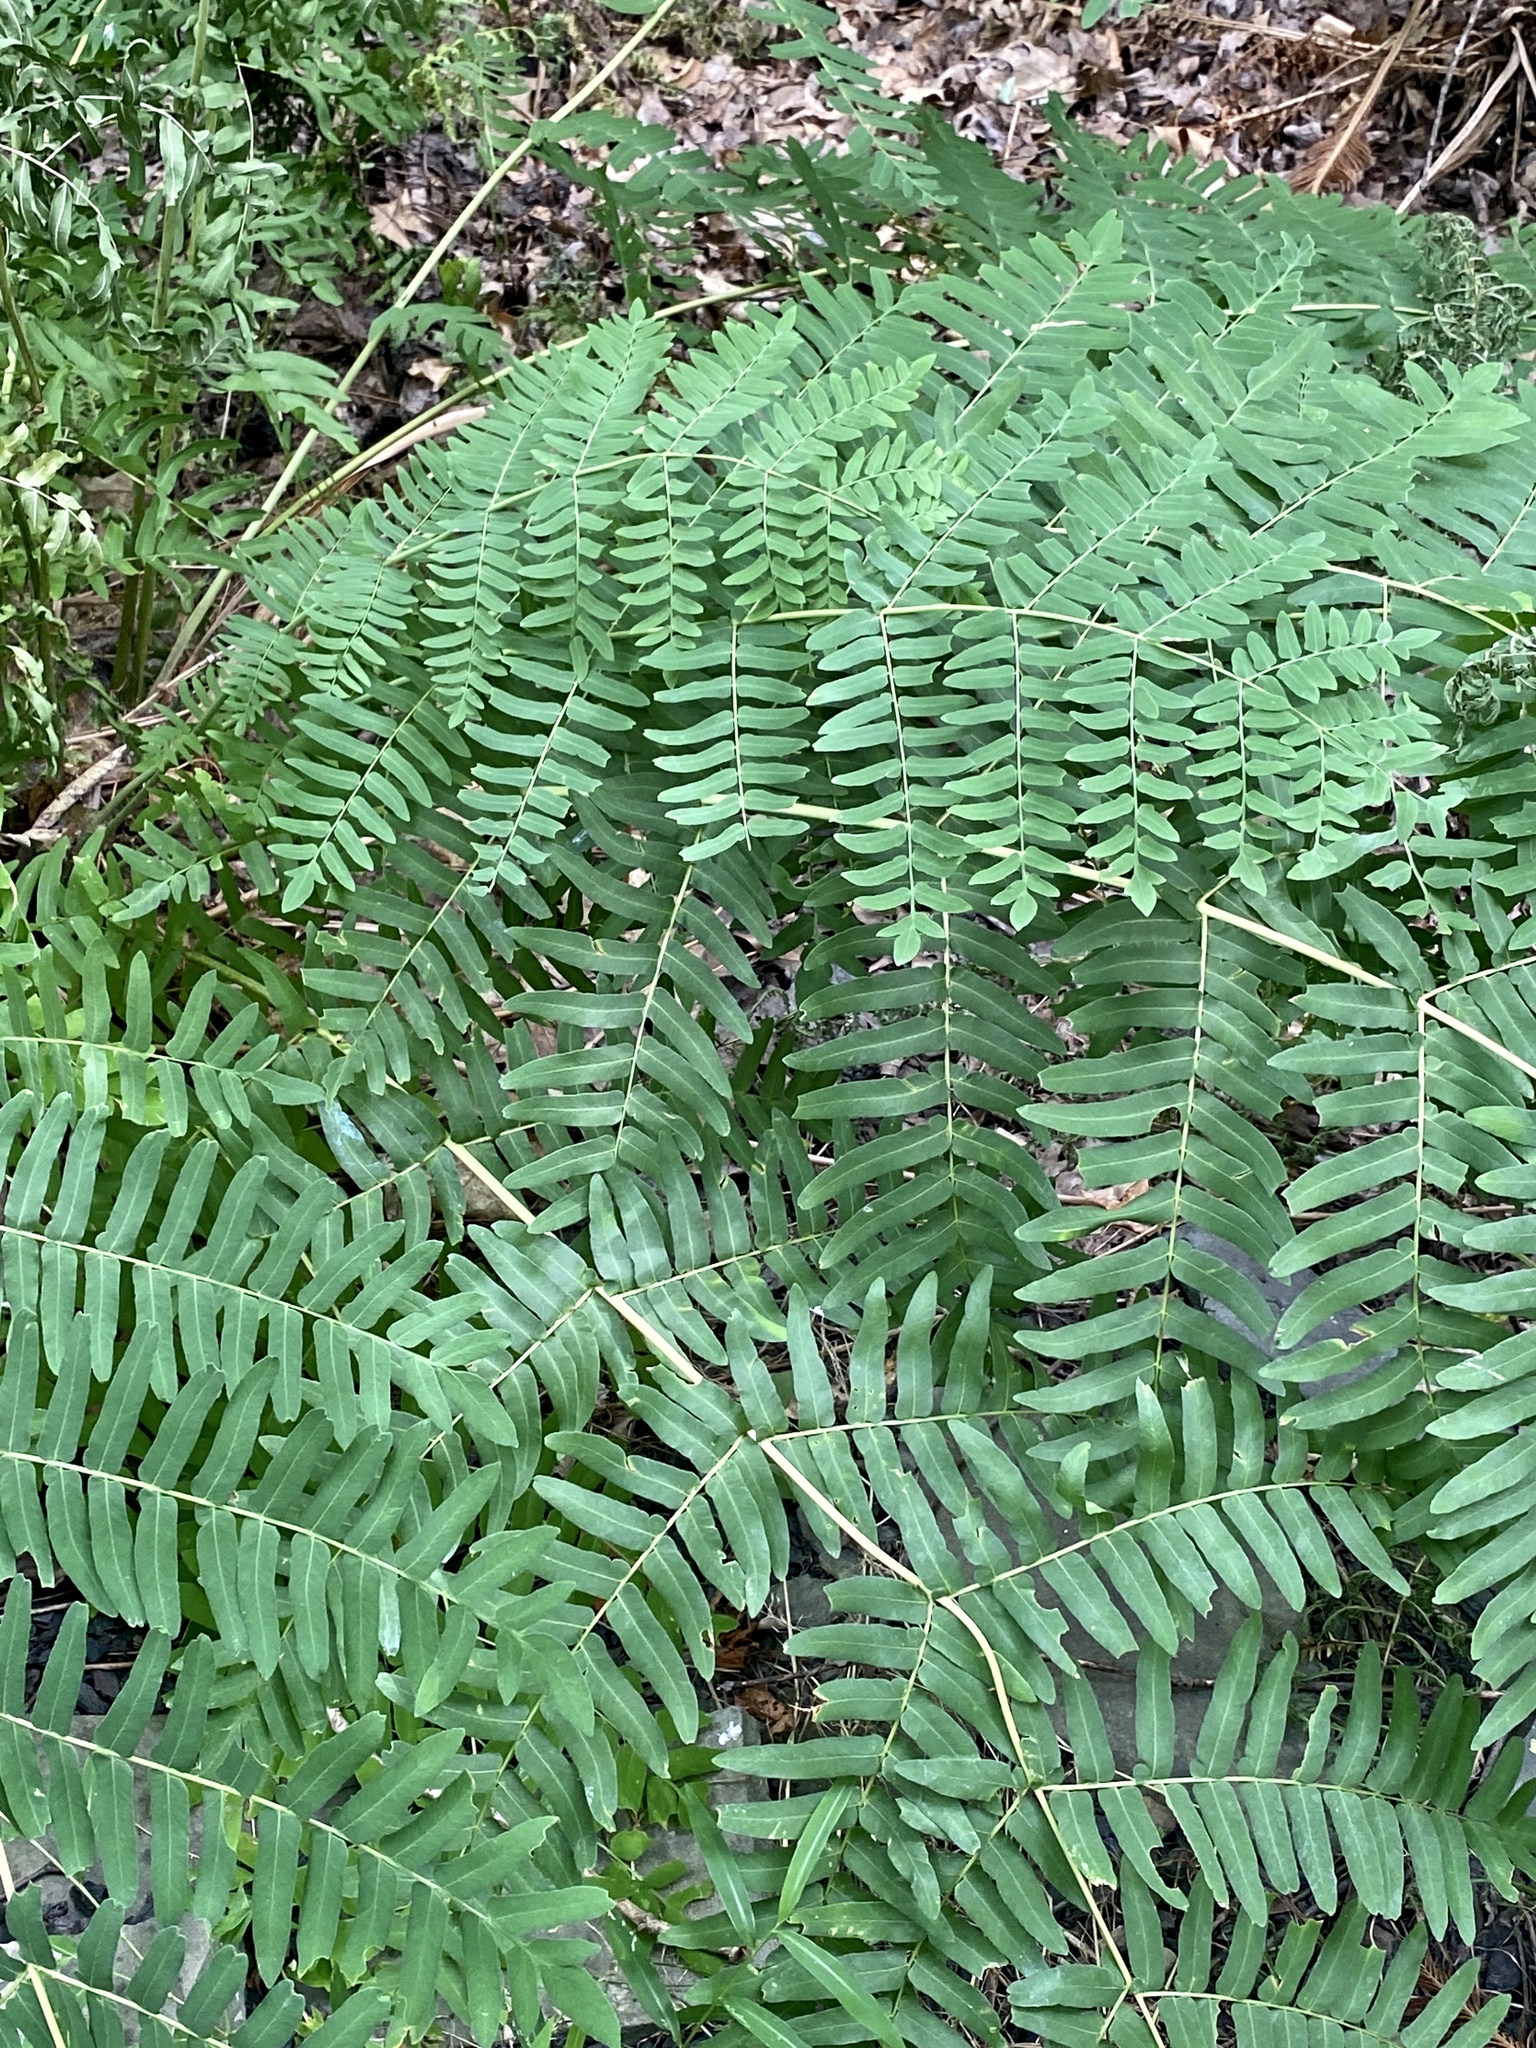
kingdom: Plantae
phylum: Tracheophyta
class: Polypodiopsida
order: Osmundales
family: Osmundaceae
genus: Osmunda
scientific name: Osmunda spectabilis
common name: American royal fern
